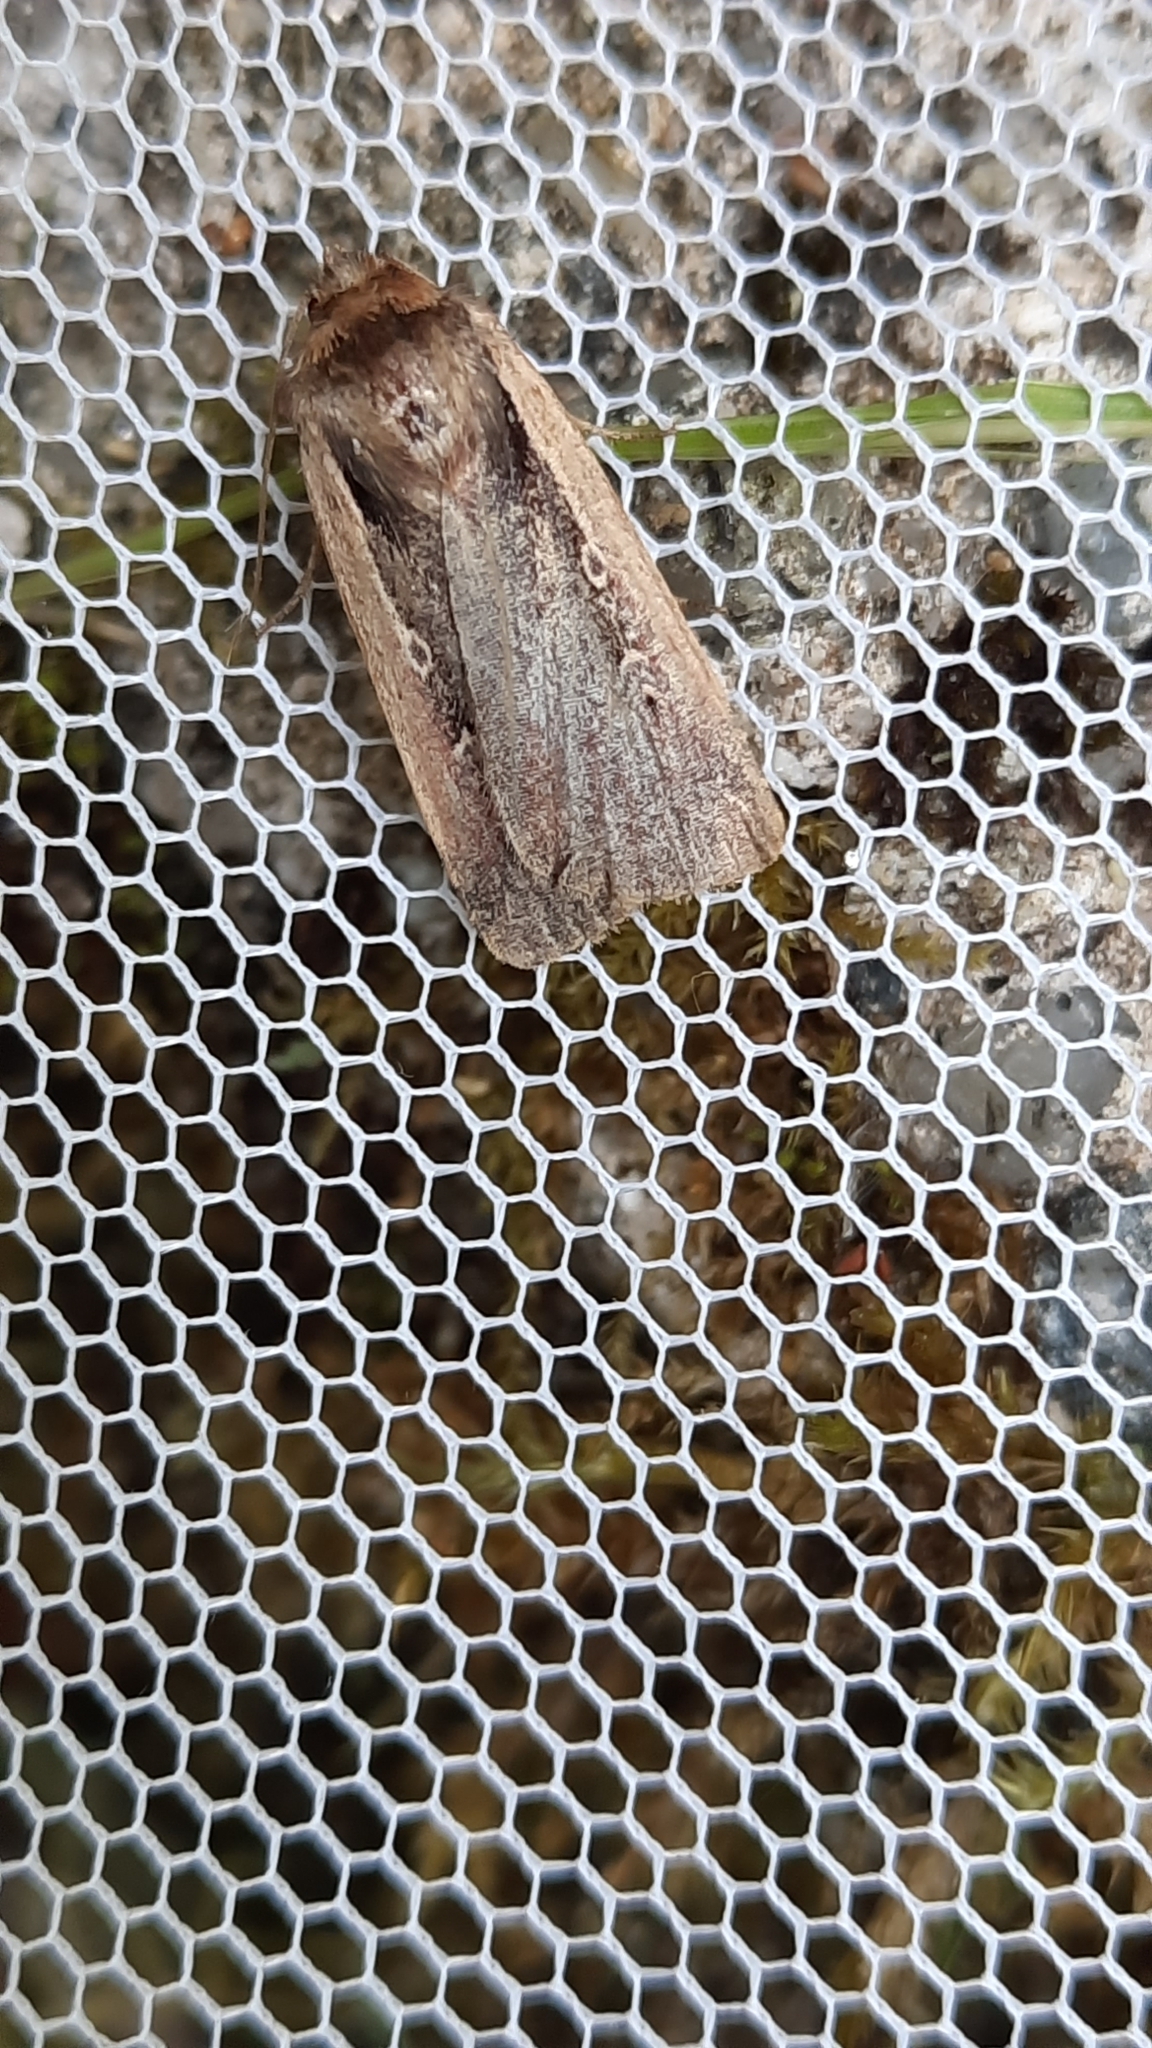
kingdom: Animalia
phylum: Arthropoda
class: Insecta
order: Lepidoptera
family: Noctuidae
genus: Ochropleura
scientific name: Ochropleura plecta
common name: Flame shoulder
